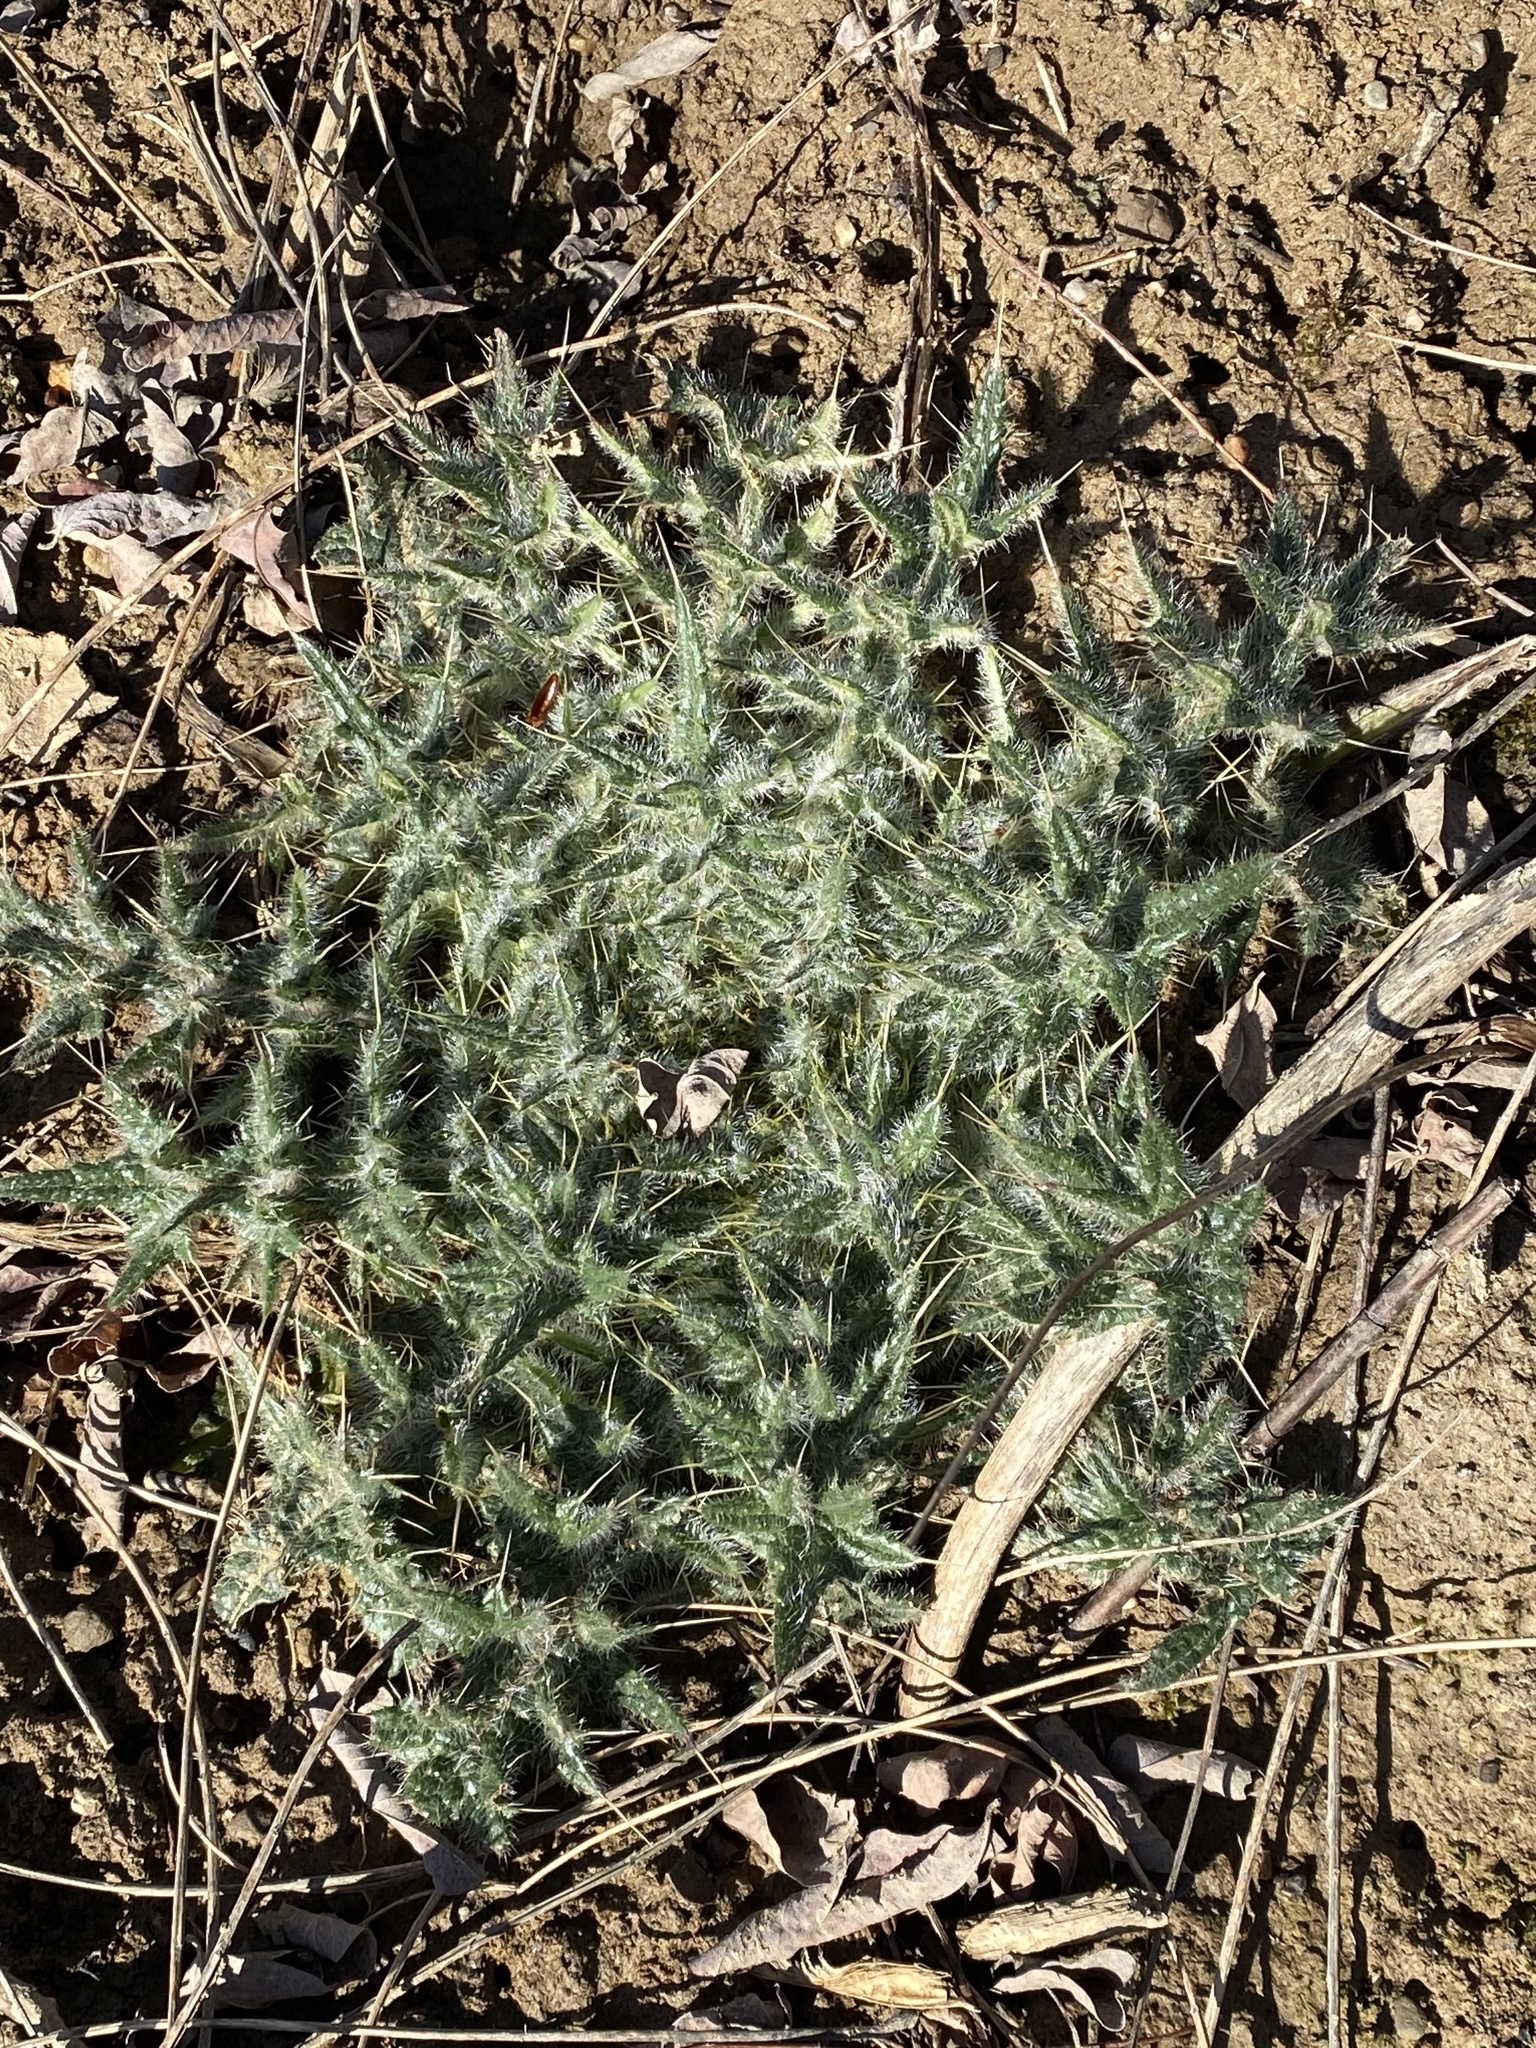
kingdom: Plantae
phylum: Tracheophyta
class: Magnoliopsida
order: Asterales
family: Asteraceae
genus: Cirsium
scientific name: Cirsium vulgare
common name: Bull thistle
